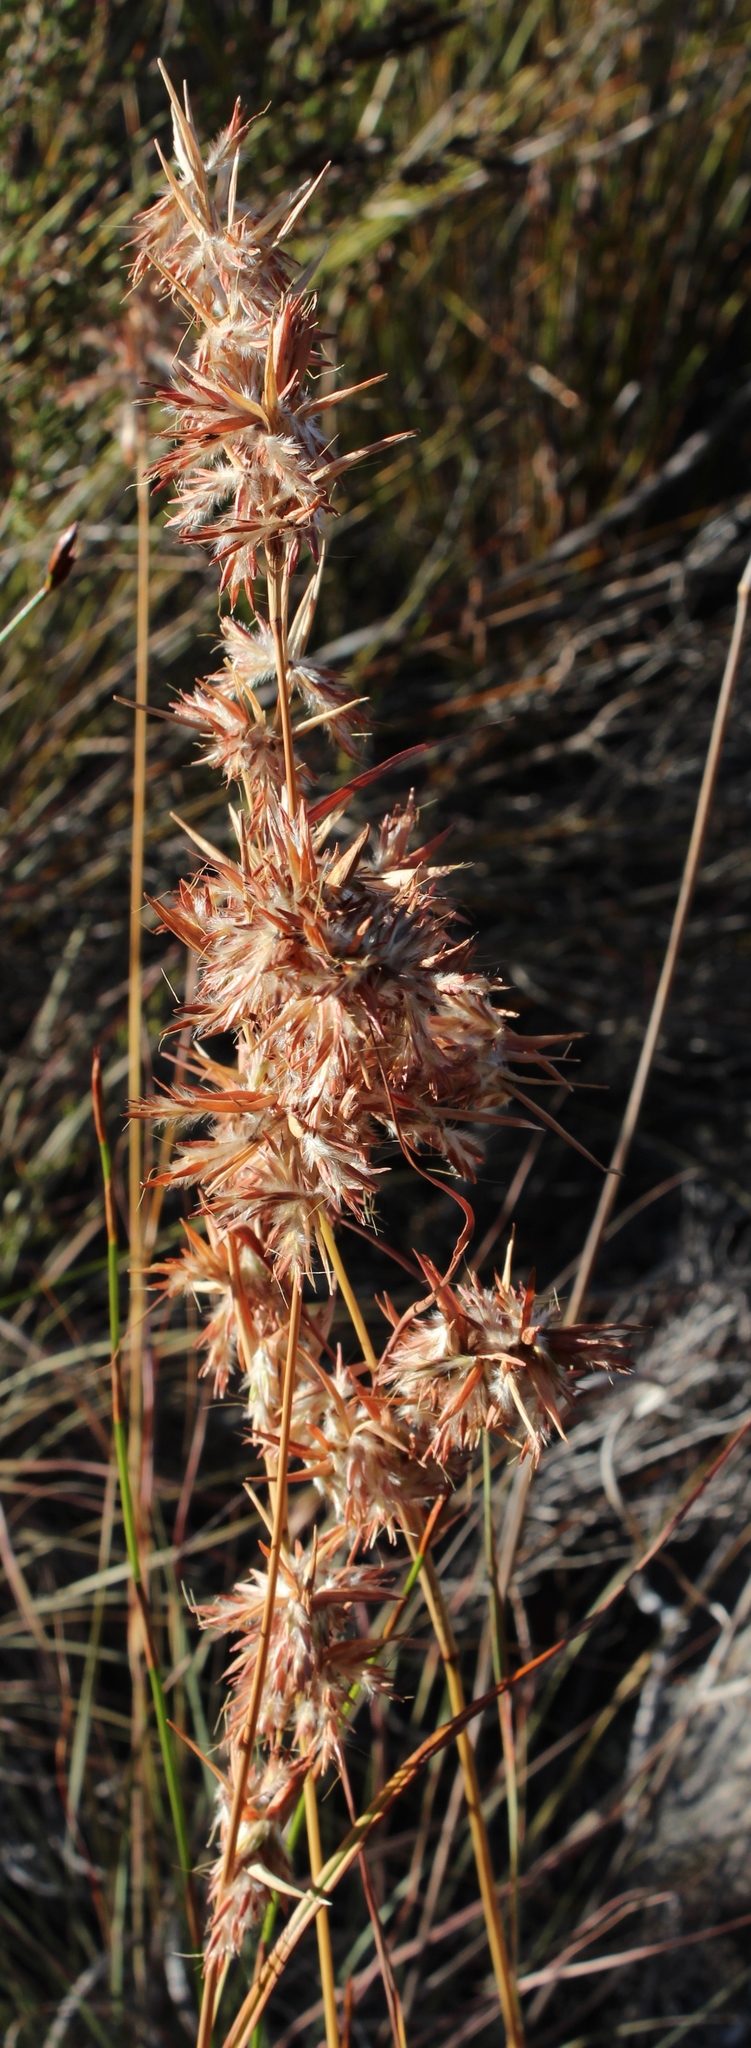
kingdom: Plantae
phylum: Tracheophyta
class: Liliopsida
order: Poales
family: Poaceae
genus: Cymbopogon
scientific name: Cymbopogon marginatus
